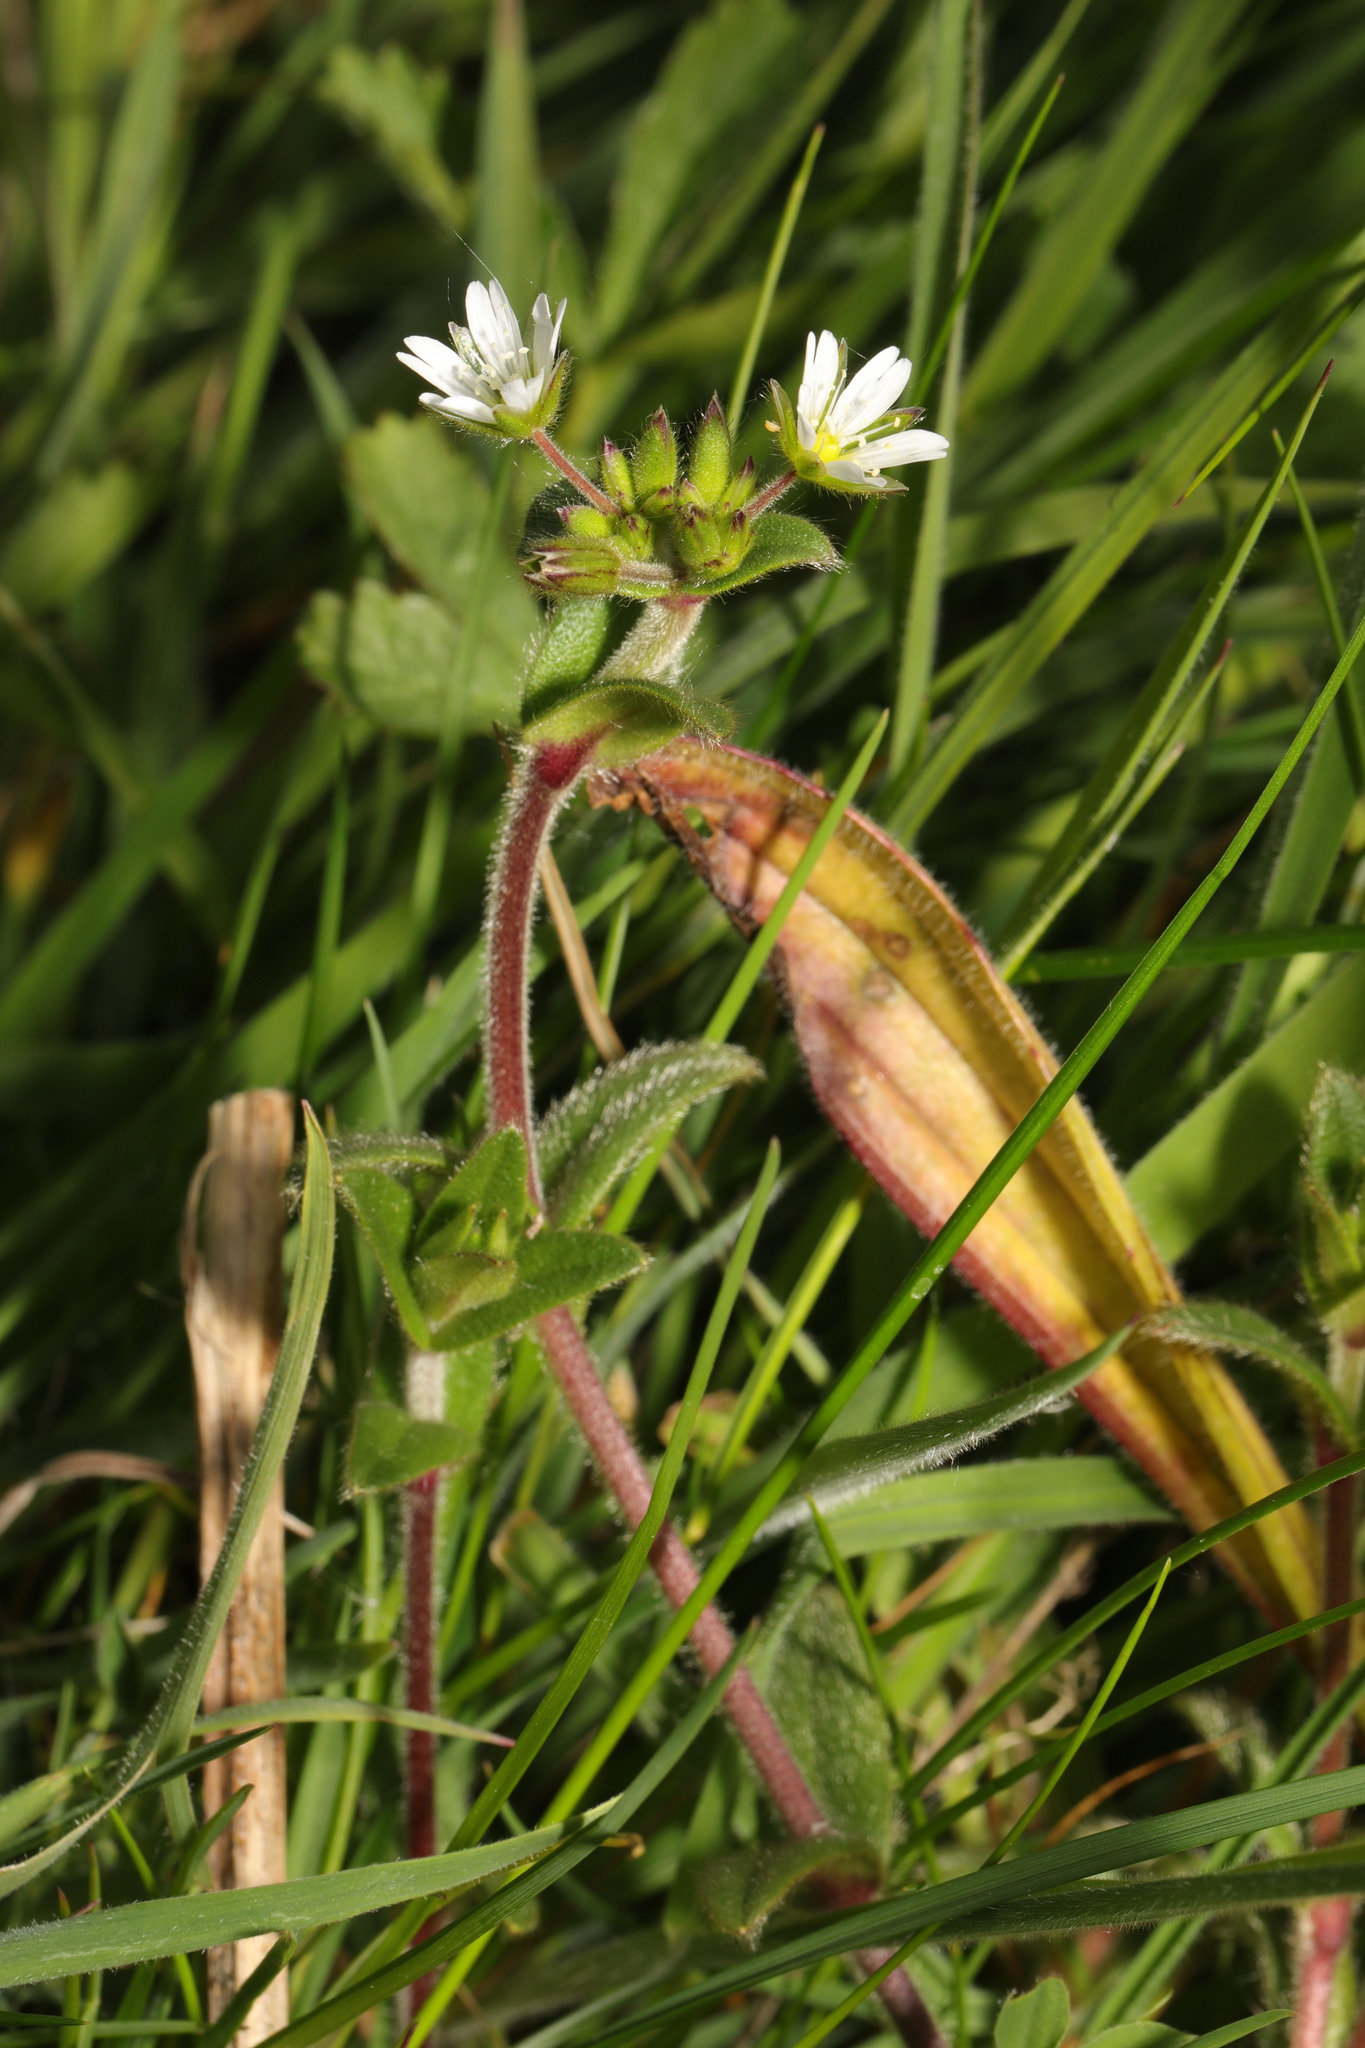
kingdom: Plantae
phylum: Tracheophyta
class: Magnoliopsida
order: Caryophyllales
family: Caryophyllaceae
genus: Cerastium
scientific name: Cerastium fontanum
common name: Common mouse-ear
